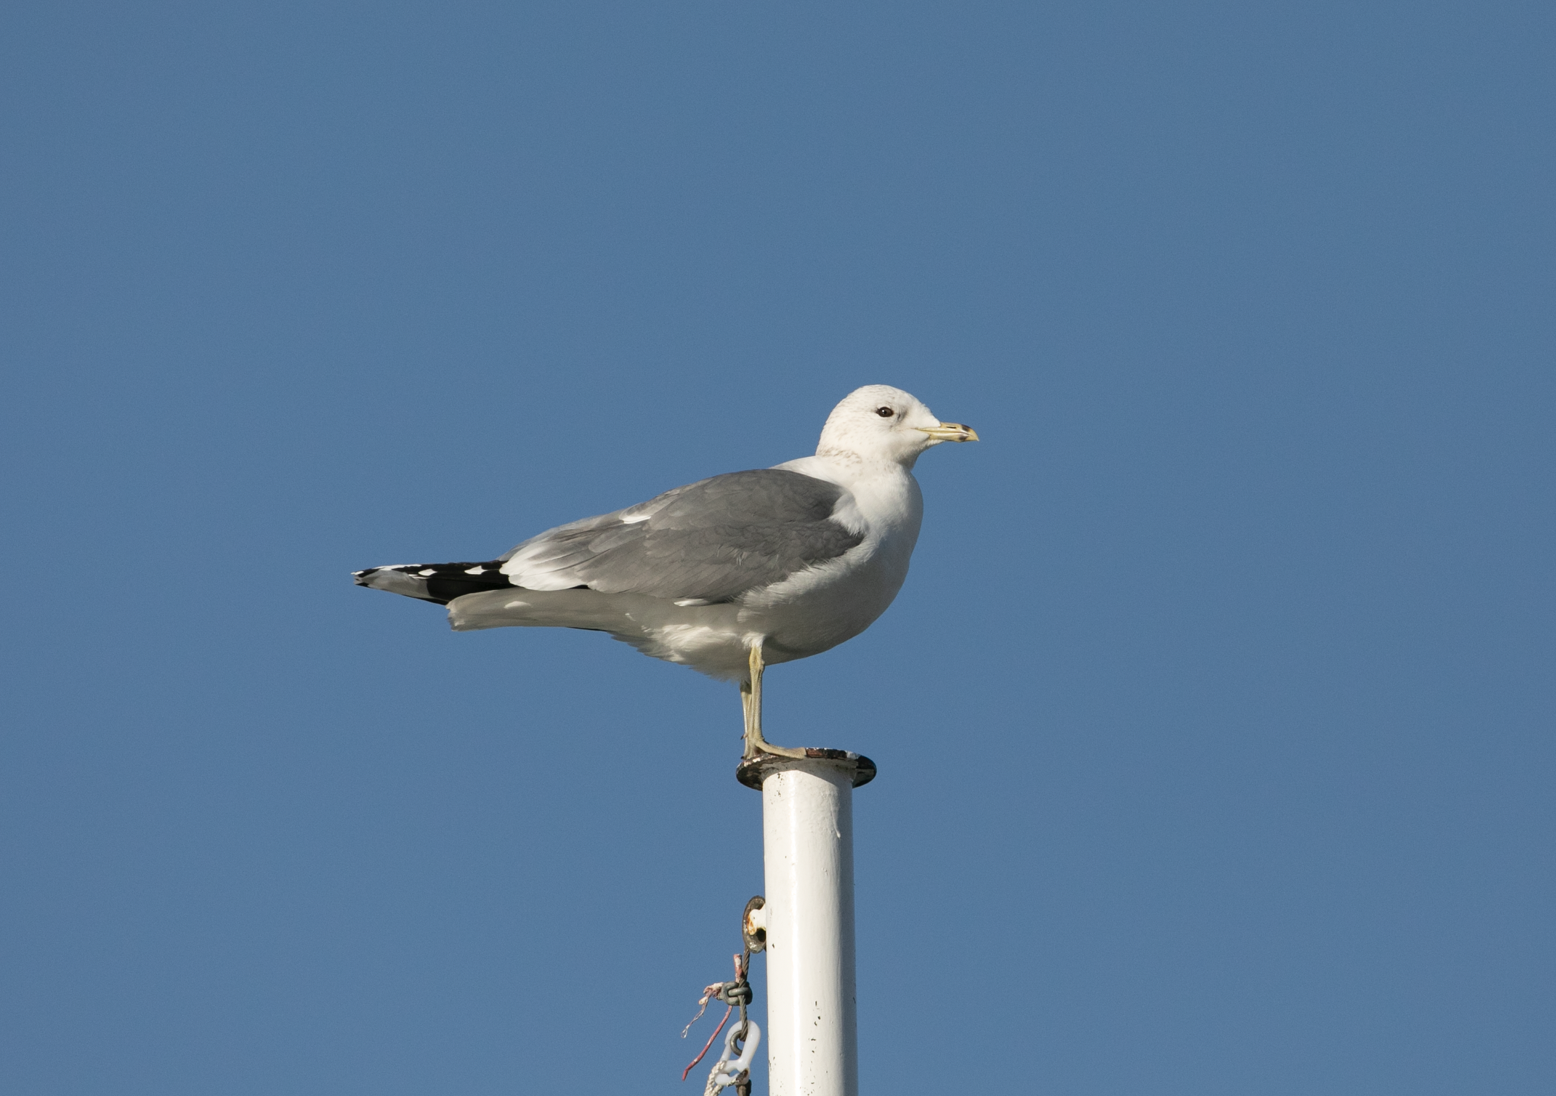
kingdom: Animalia
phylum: Chordata
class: Aves
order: Charadriiformes
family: Laridae
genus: Larus
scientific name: Larus canus
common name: Mew gull
